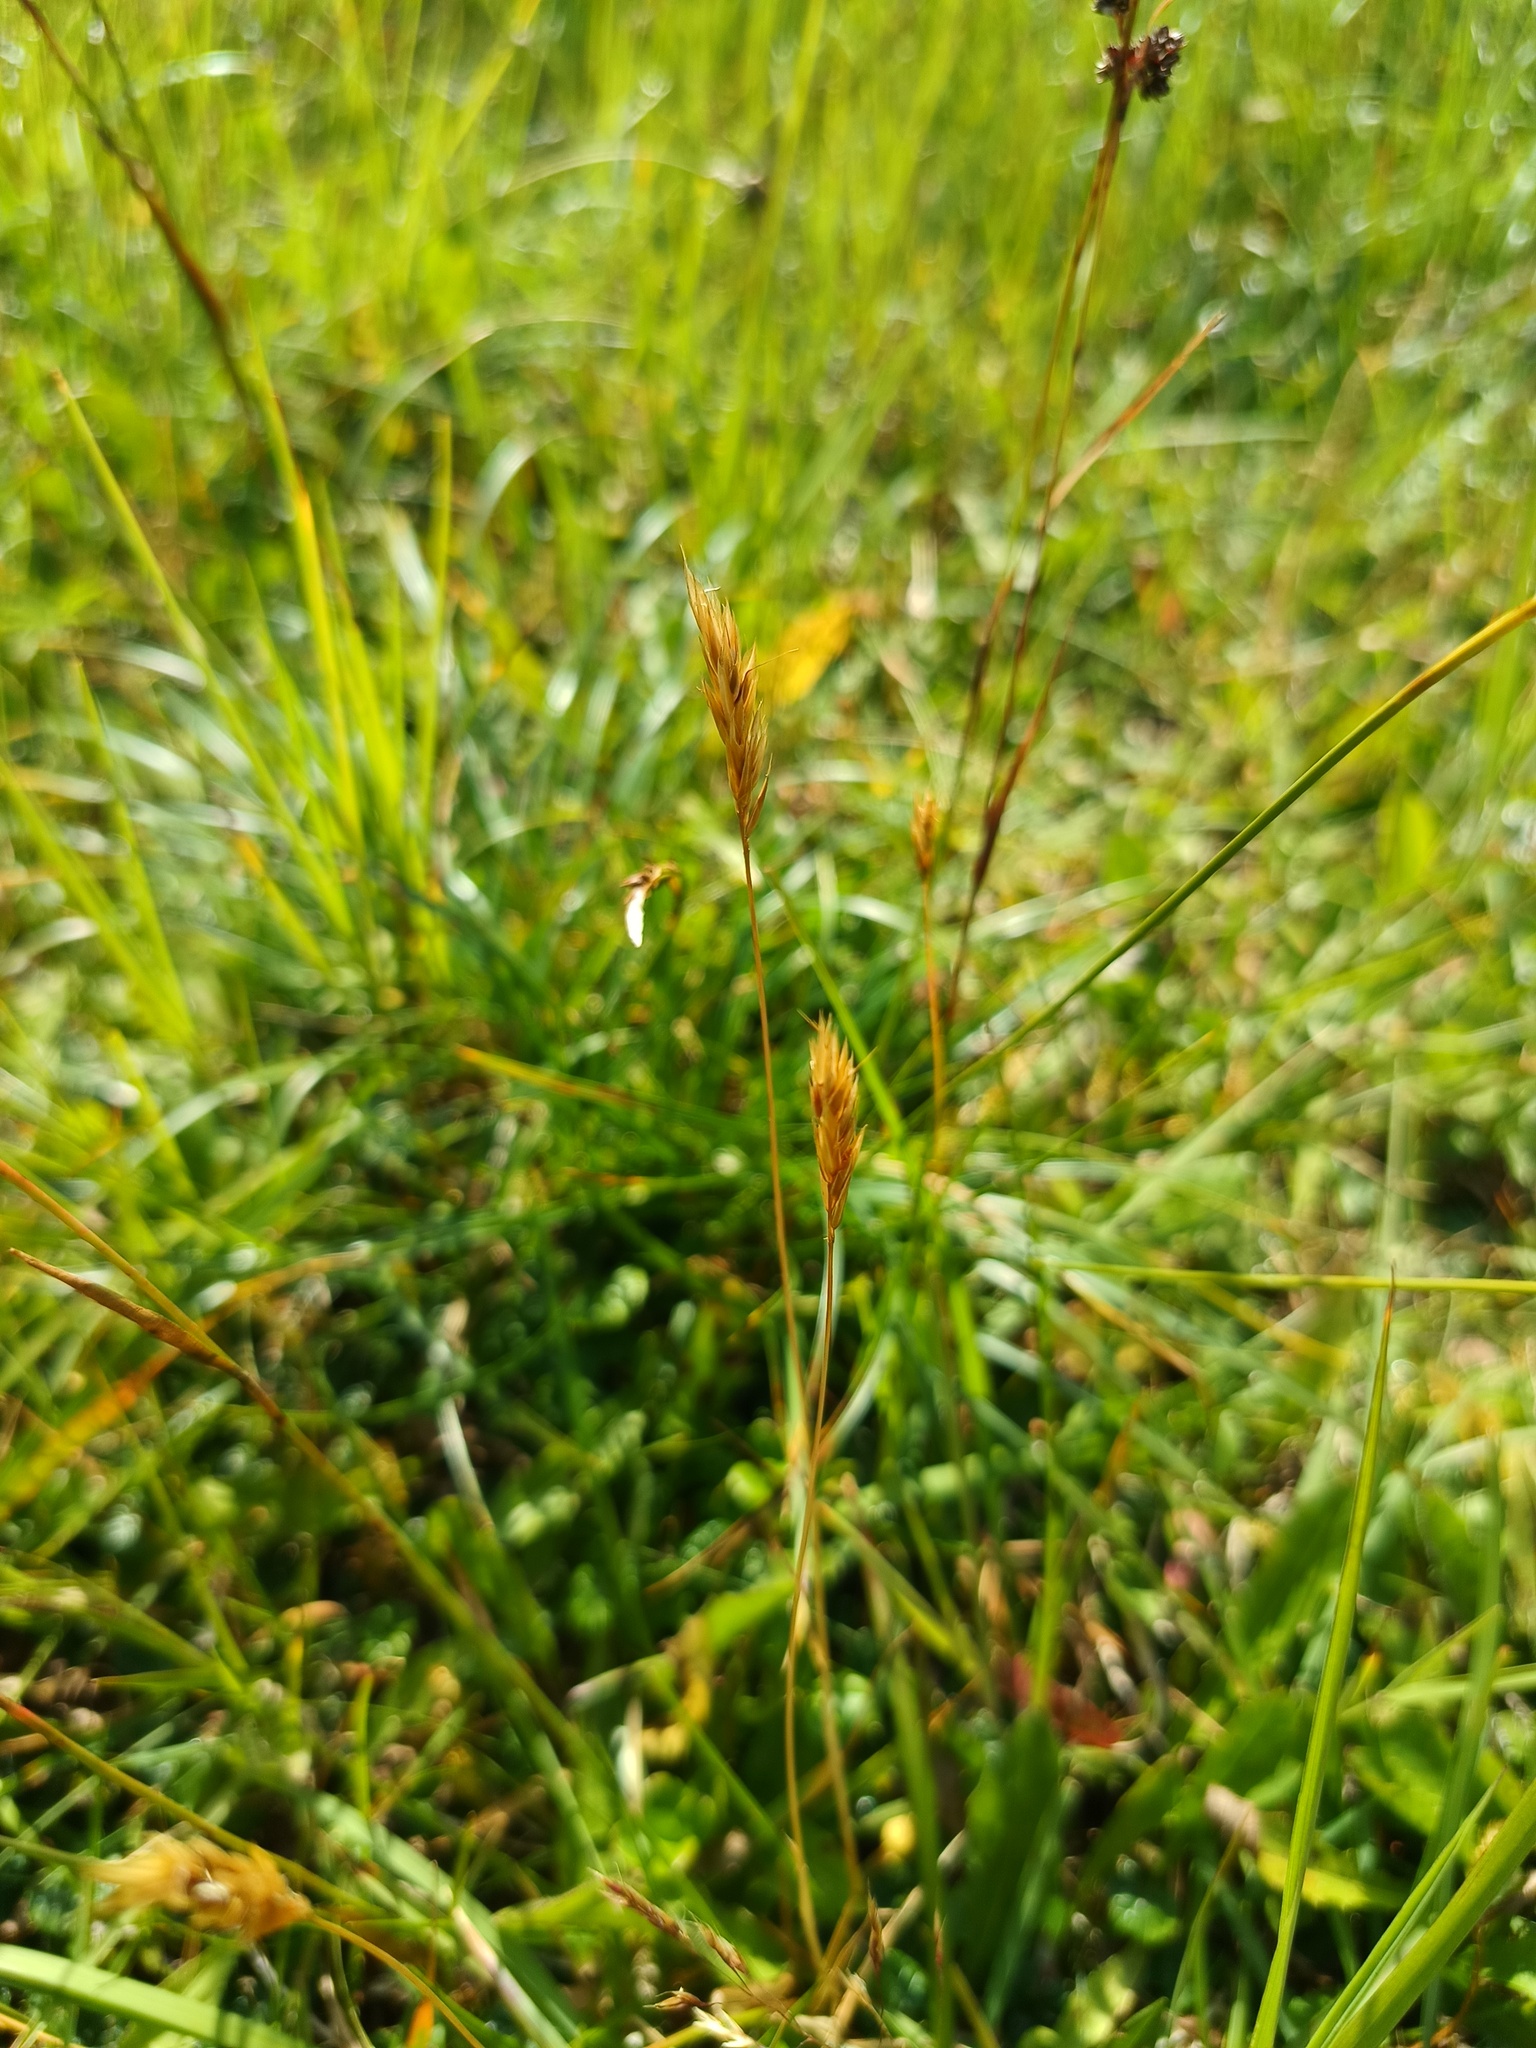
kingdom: Plantae
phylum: Tracheophyta
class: Liliopsida
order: Poales
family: Poaceae
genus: Anthoxanthum
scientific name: Anthoxanthum odoratum
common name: Sweet vernalgrass
